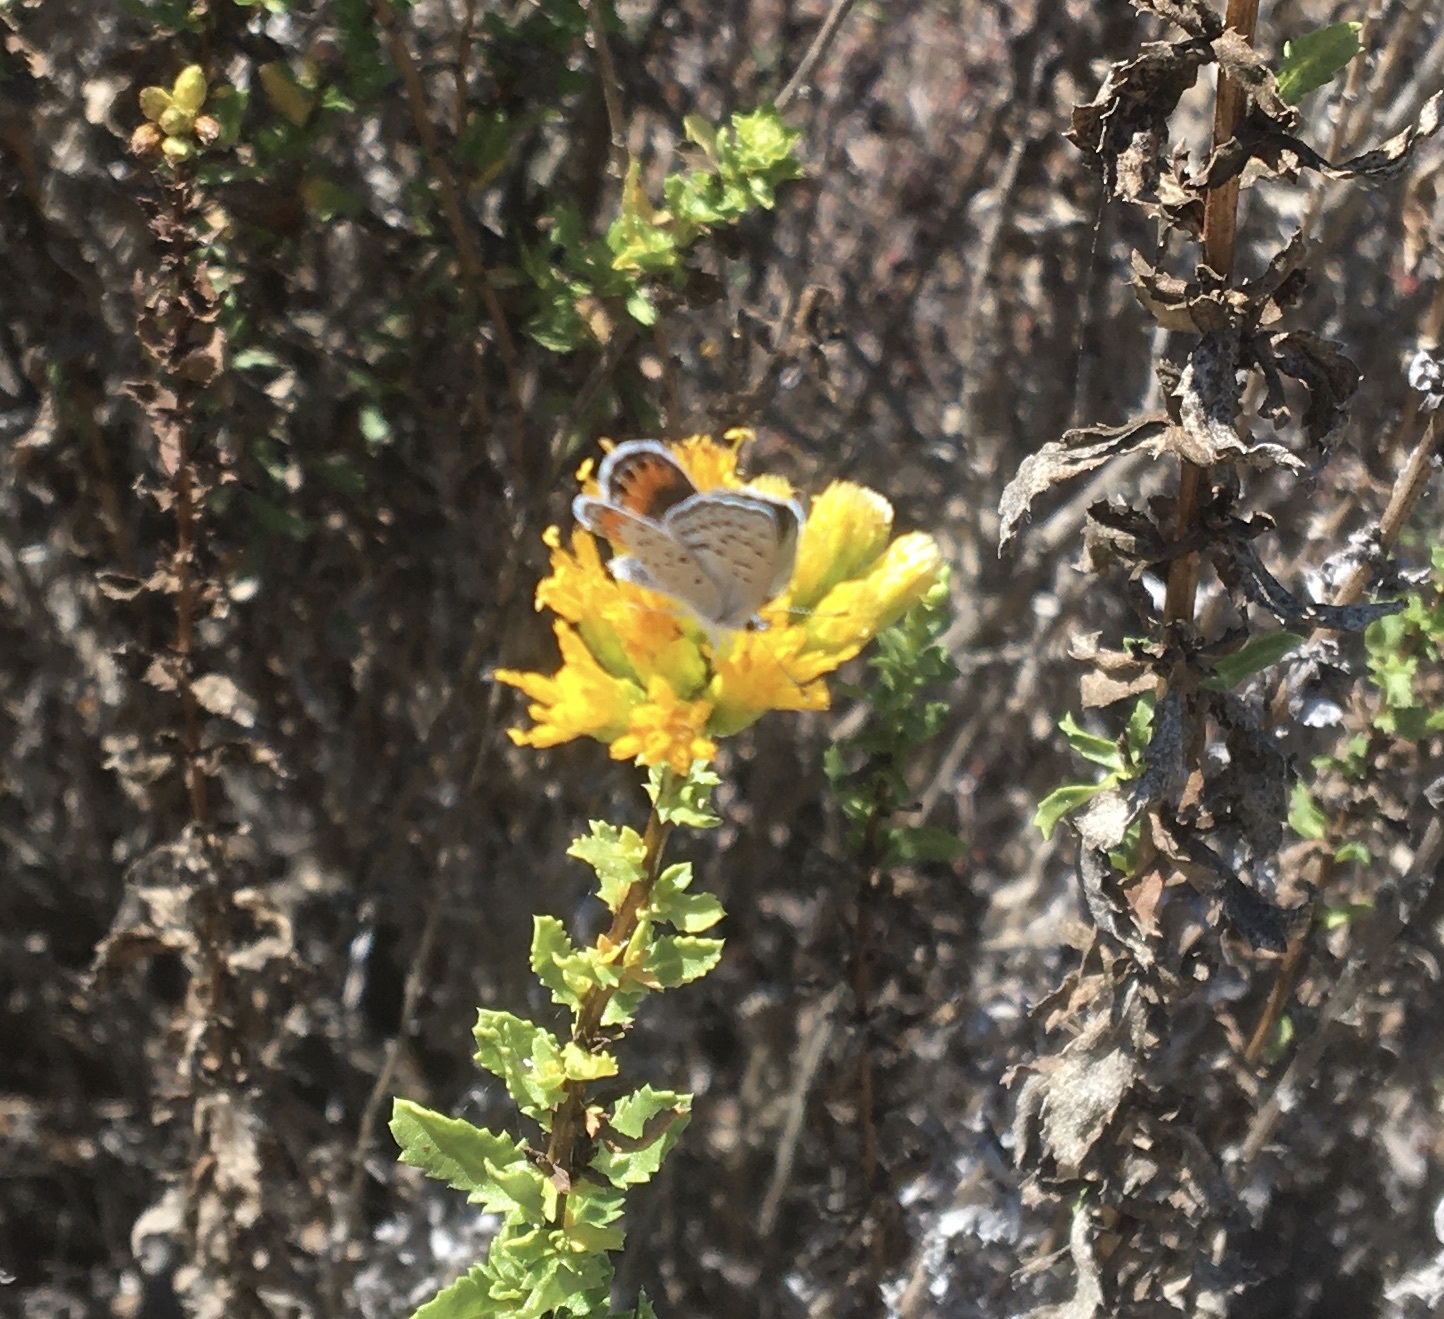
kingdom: Animalia
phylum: Arthropoda
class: Insecta
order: Lepidoptera
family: Lycaenidae
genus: Icaricia
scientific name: Icaricia acmon
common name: Acmon blue
